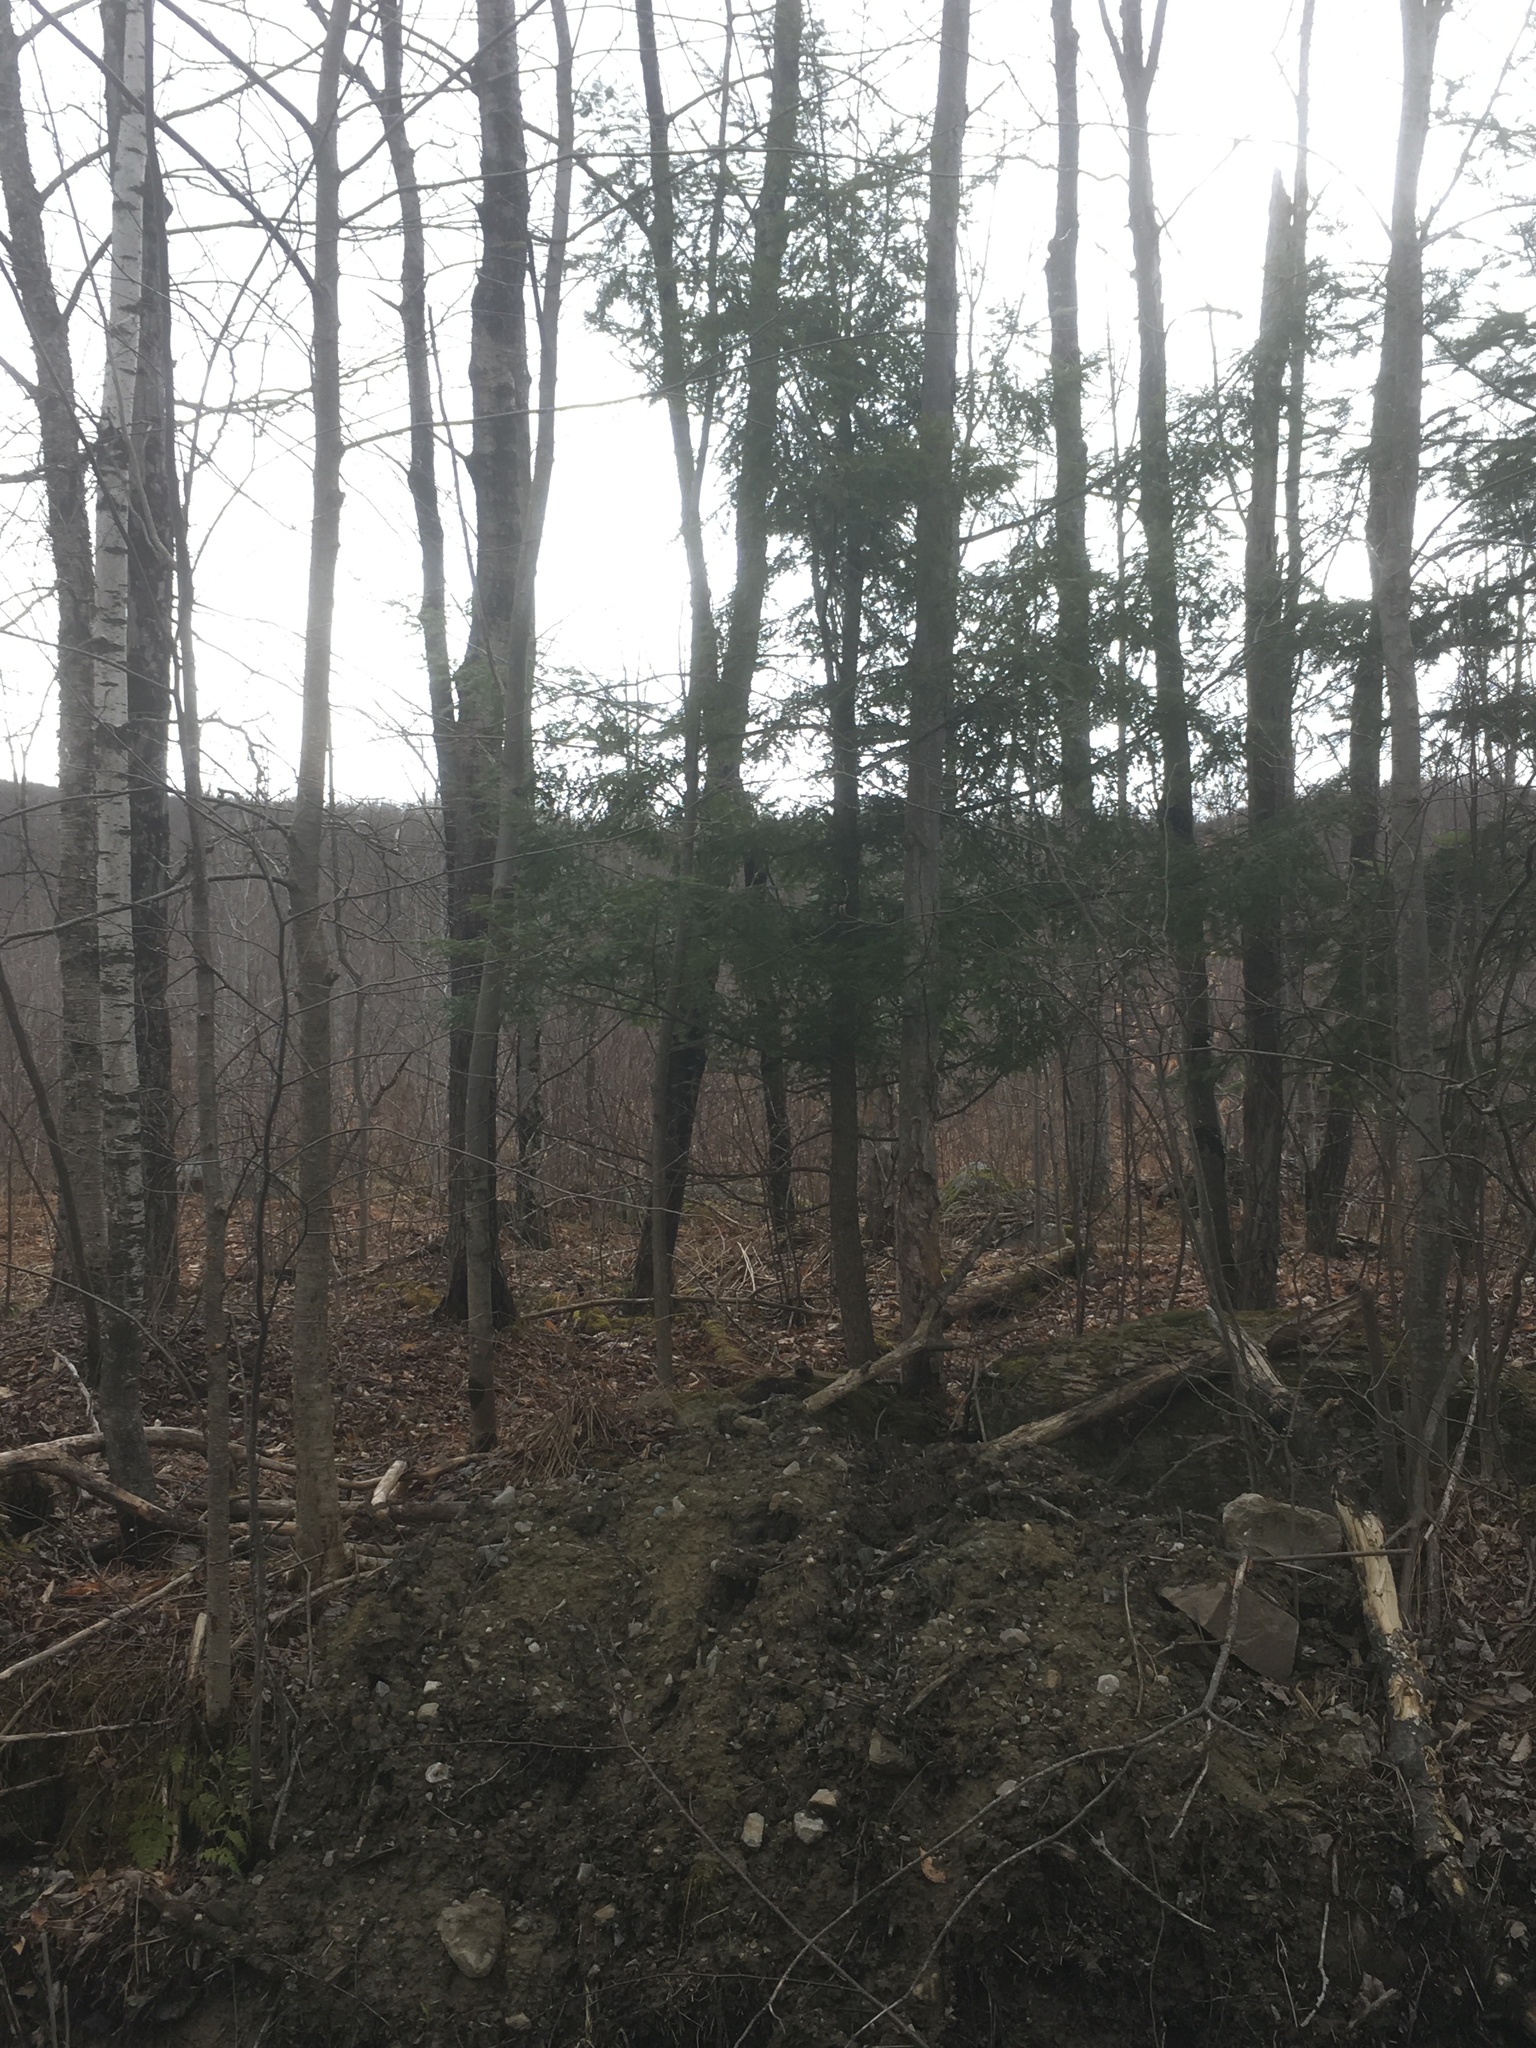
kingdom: Plantae
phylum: Tracheophyta
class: Pinopsida
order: Pinales
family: Pinaceae
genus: Tsuga
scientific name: Tsuga canadensis
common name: Eastern hemlock
